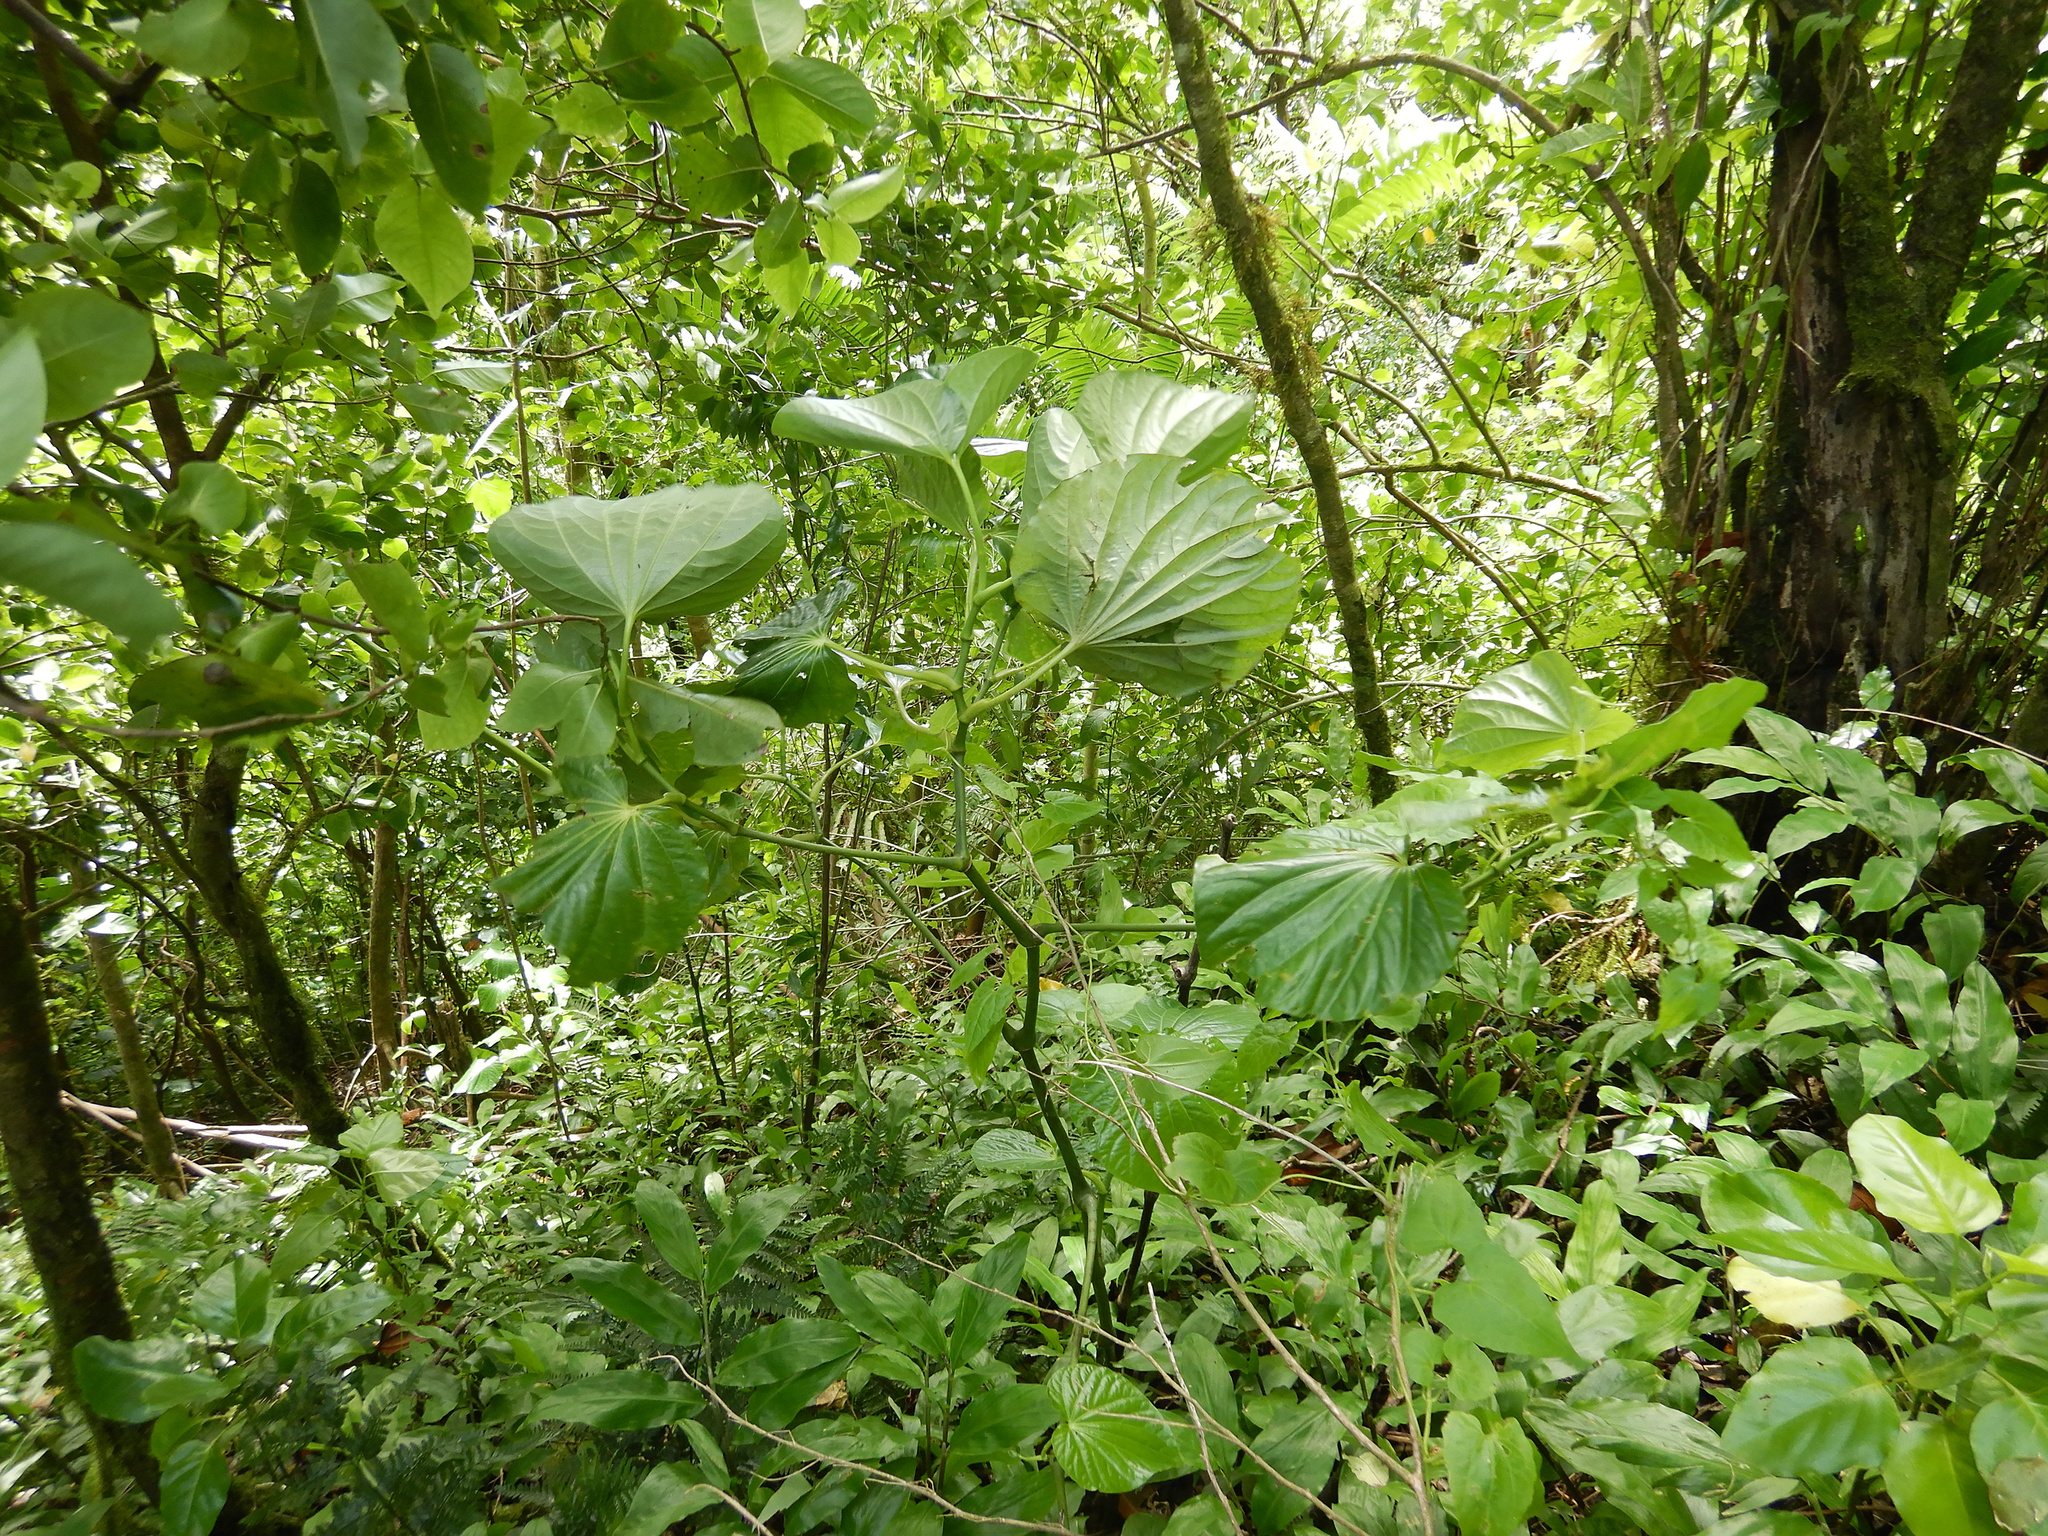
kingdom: Plantae
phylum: Tracheophyta
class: Magnoliopsida
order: Piperales
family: Piperaceae
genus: Piper
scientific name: Piper latifolium
